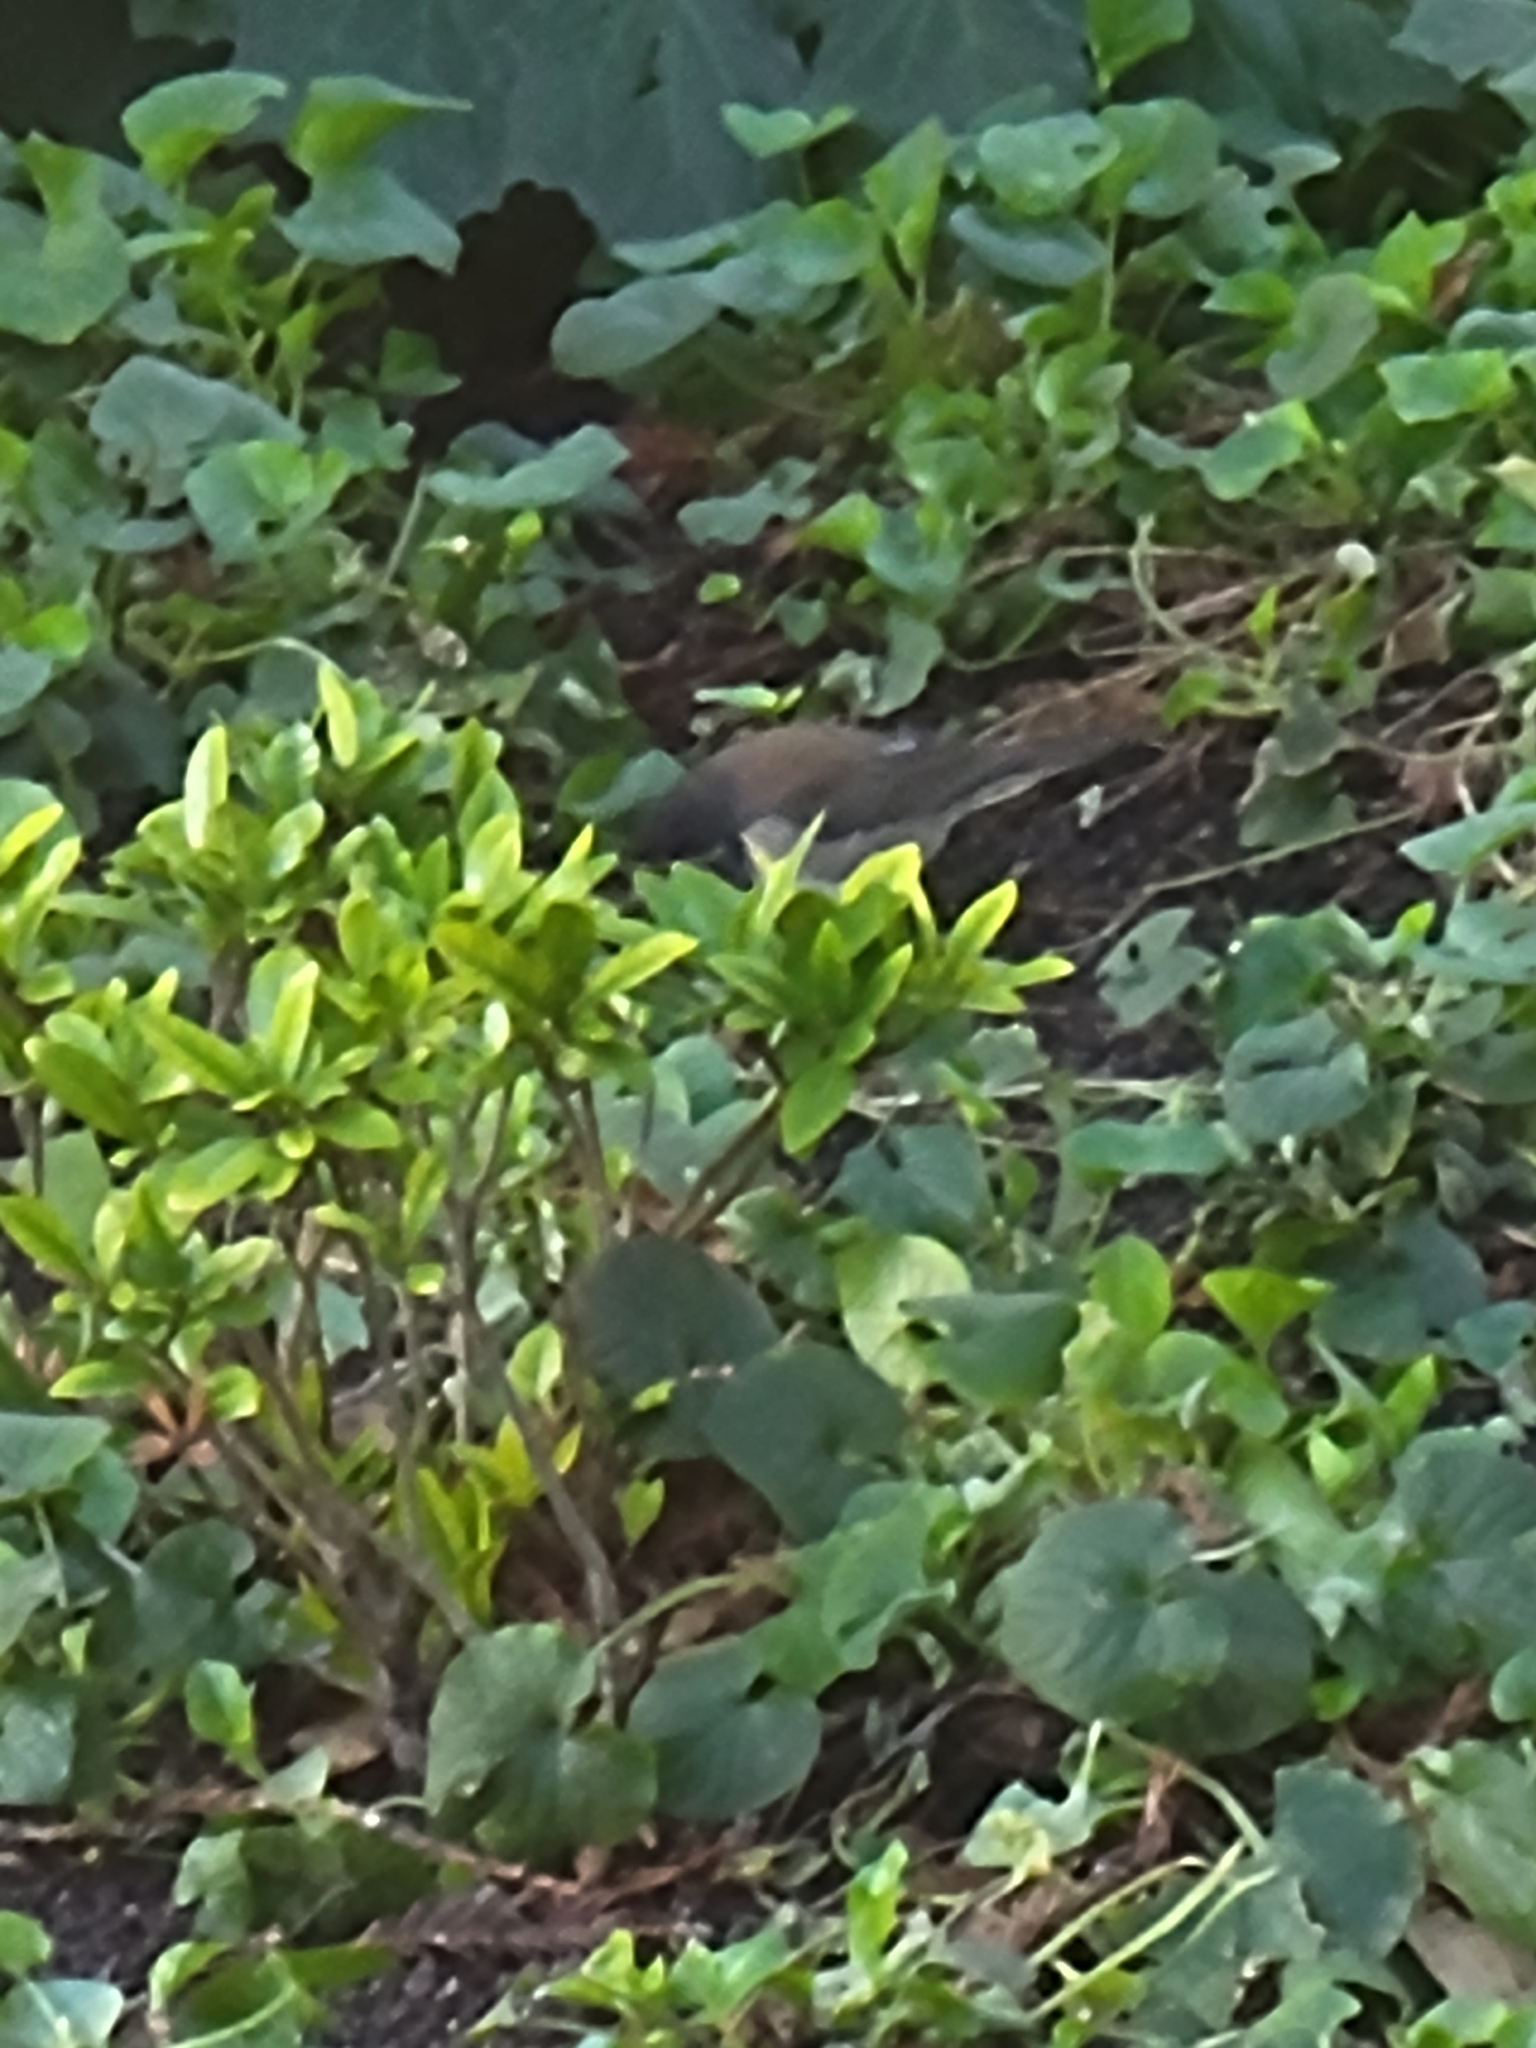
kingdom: Animalia
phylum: Chordata
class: Aves
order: Passeriformes
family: Passerellidae
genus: Junco
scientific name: Junco hyemalis
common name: Dark-eyed junco
